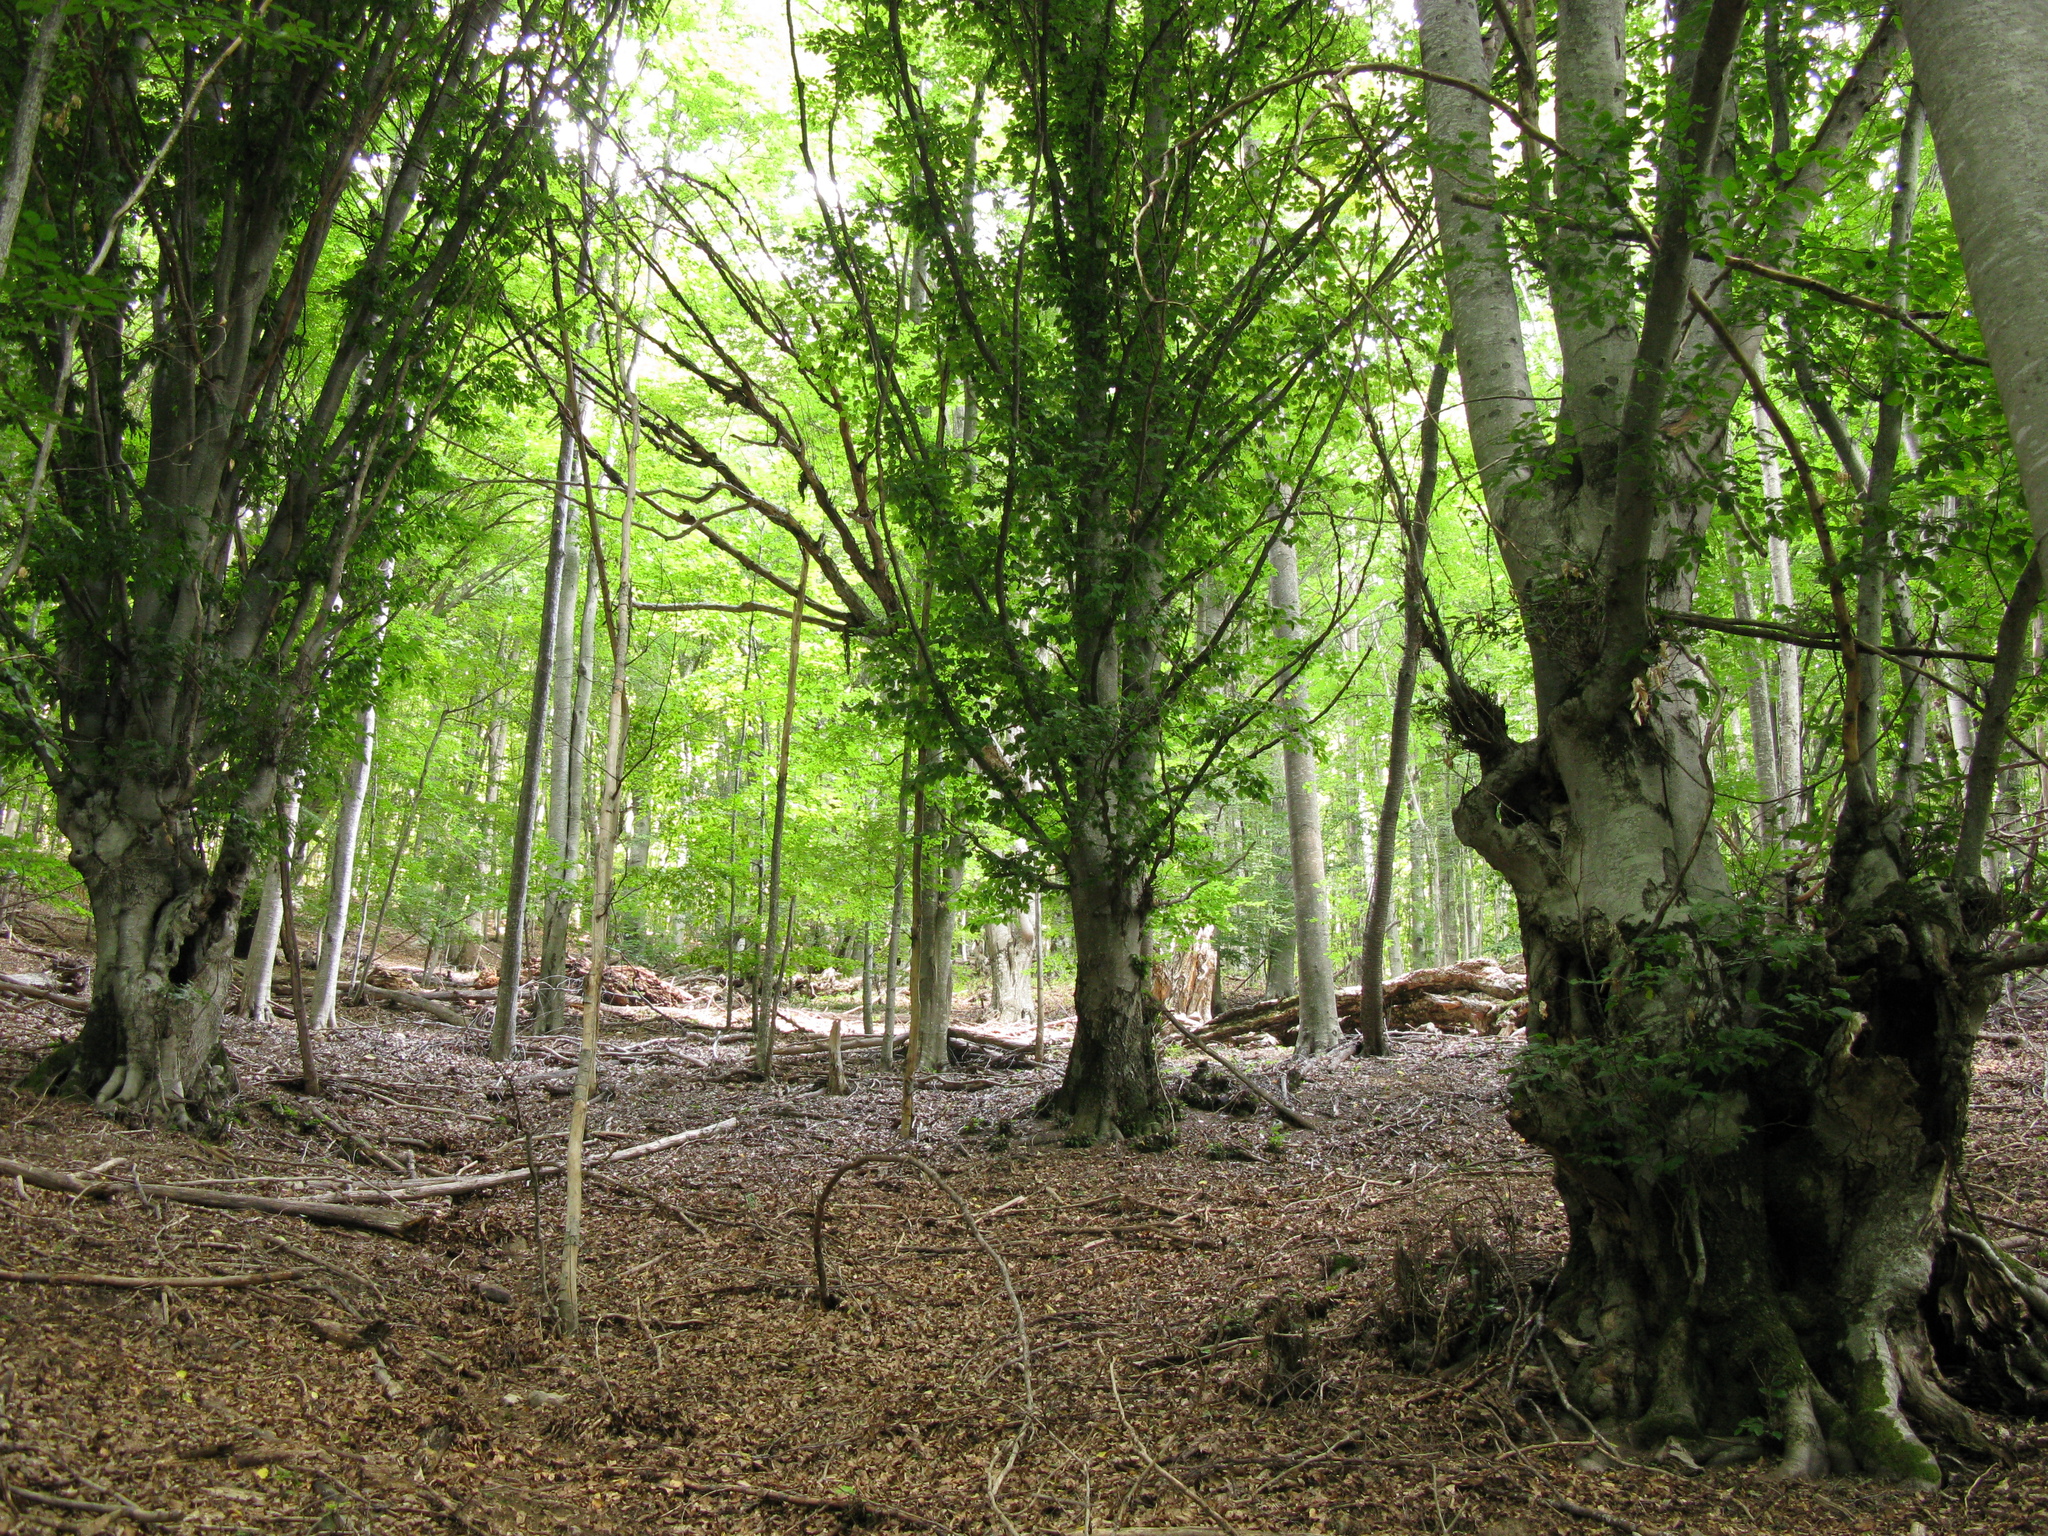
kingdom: Plantae
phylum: Tracheophyta
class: Magnoliopsida
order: Fagales
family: Fagaceae
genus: Fagus
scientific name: Fagus taurica
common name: Crimean beech
